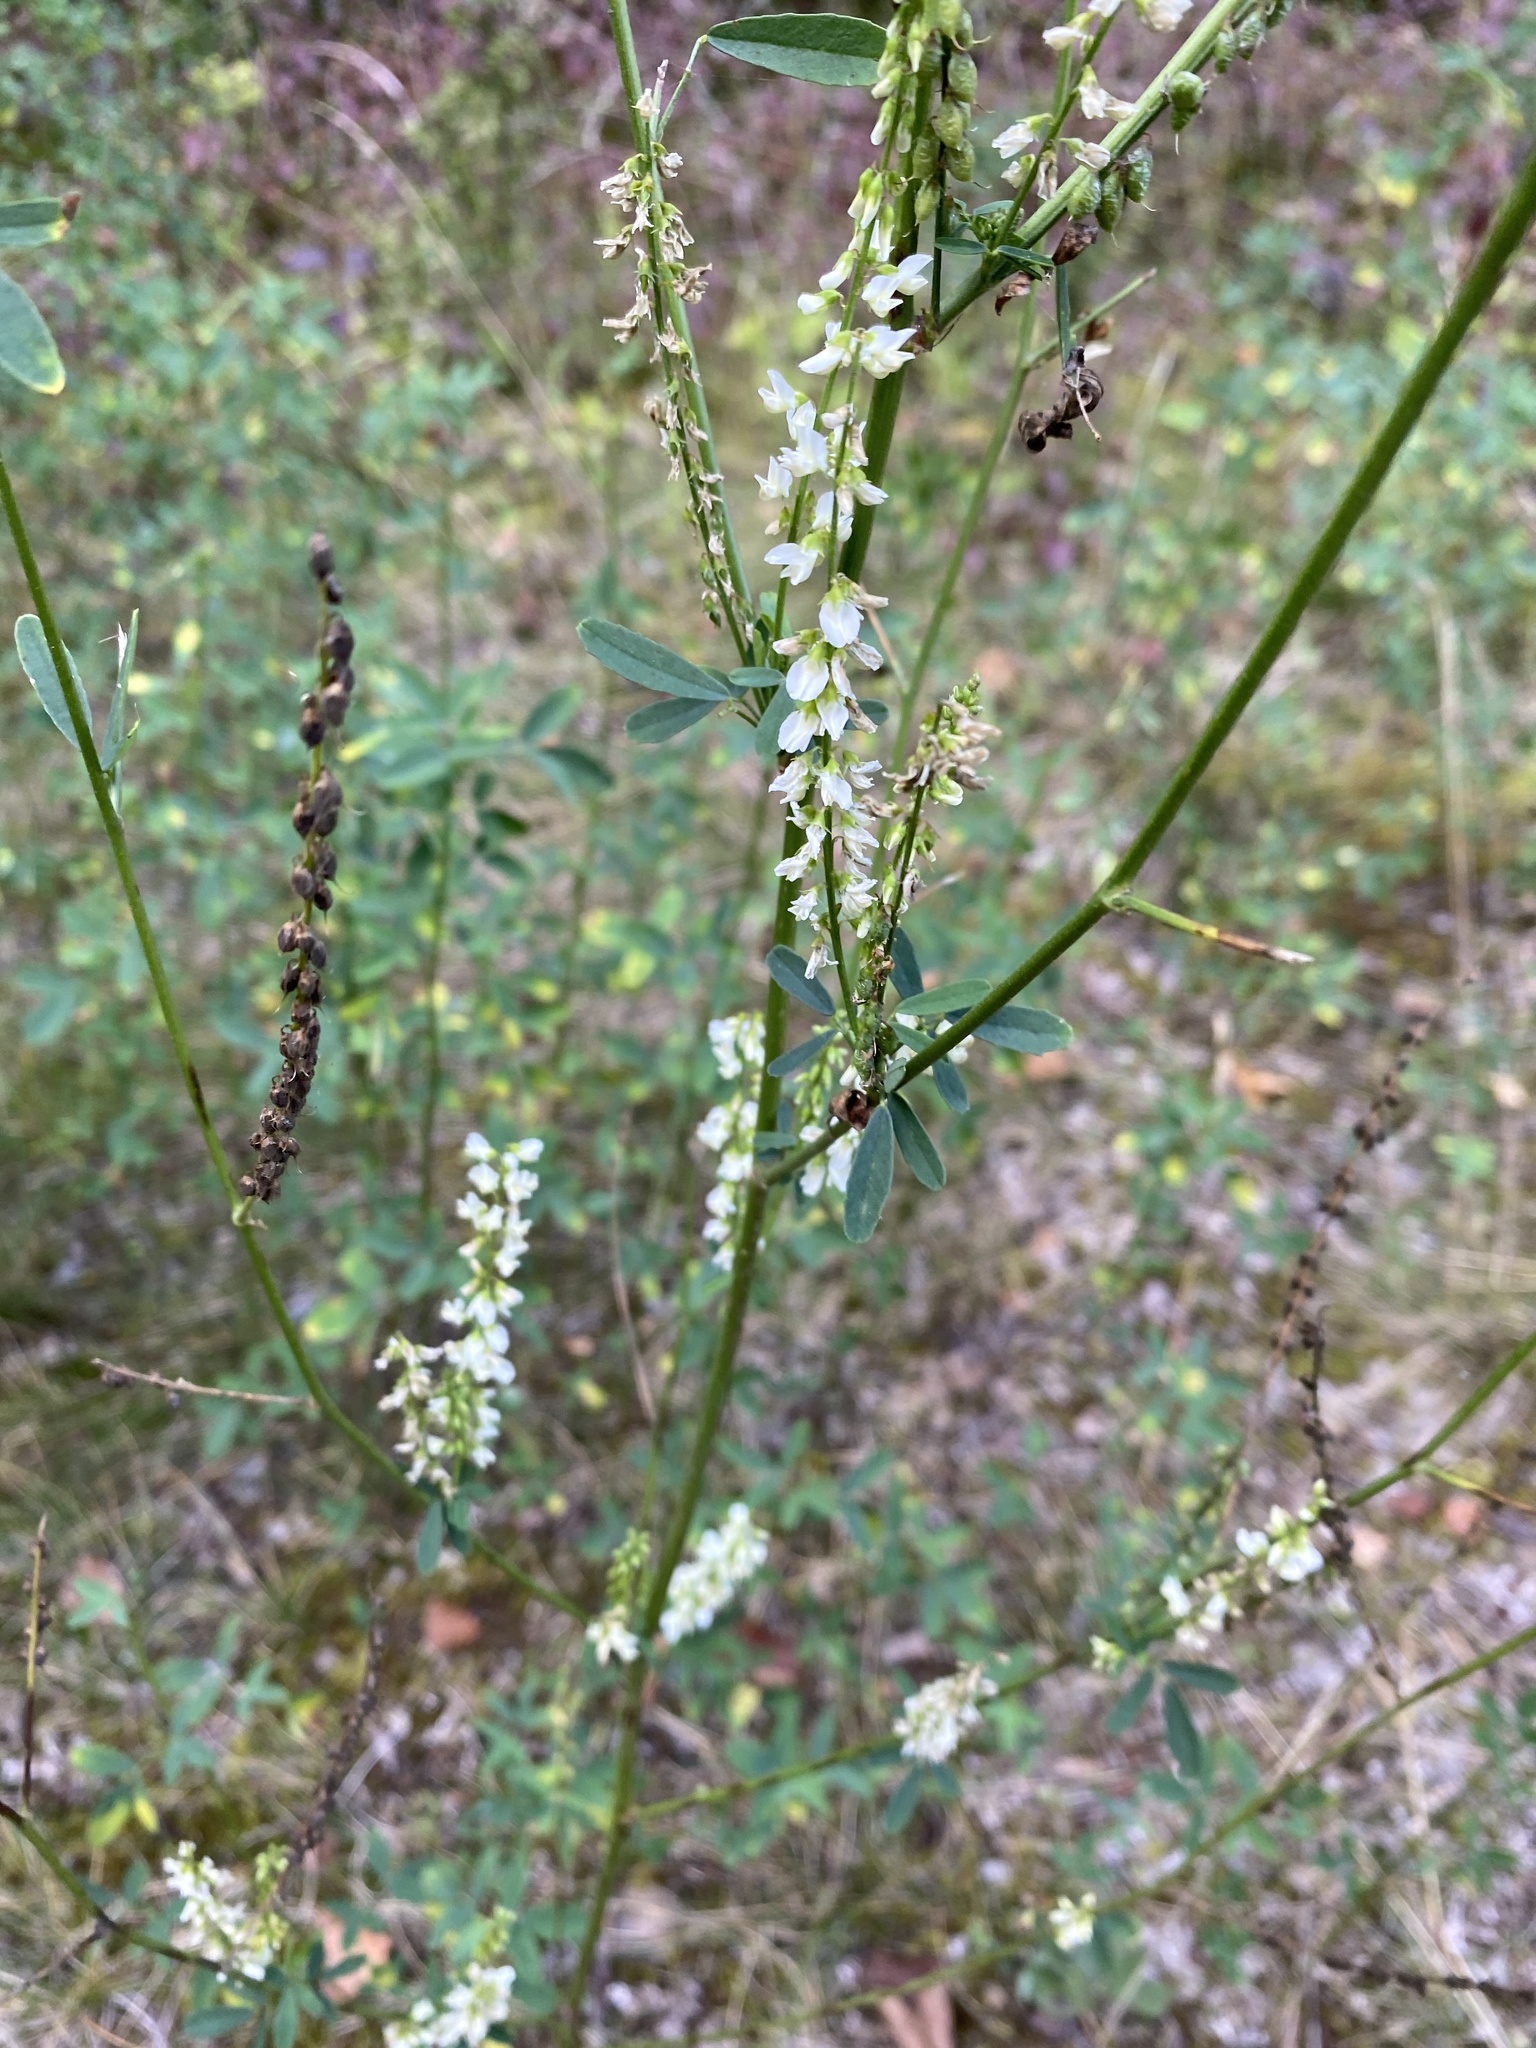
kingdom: Plantae
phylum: Tracheophyta
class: Magnoliopsida
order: Fabales
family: Fabaceae
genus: Melilotus
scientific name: Melilotus albus
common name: White melilot
